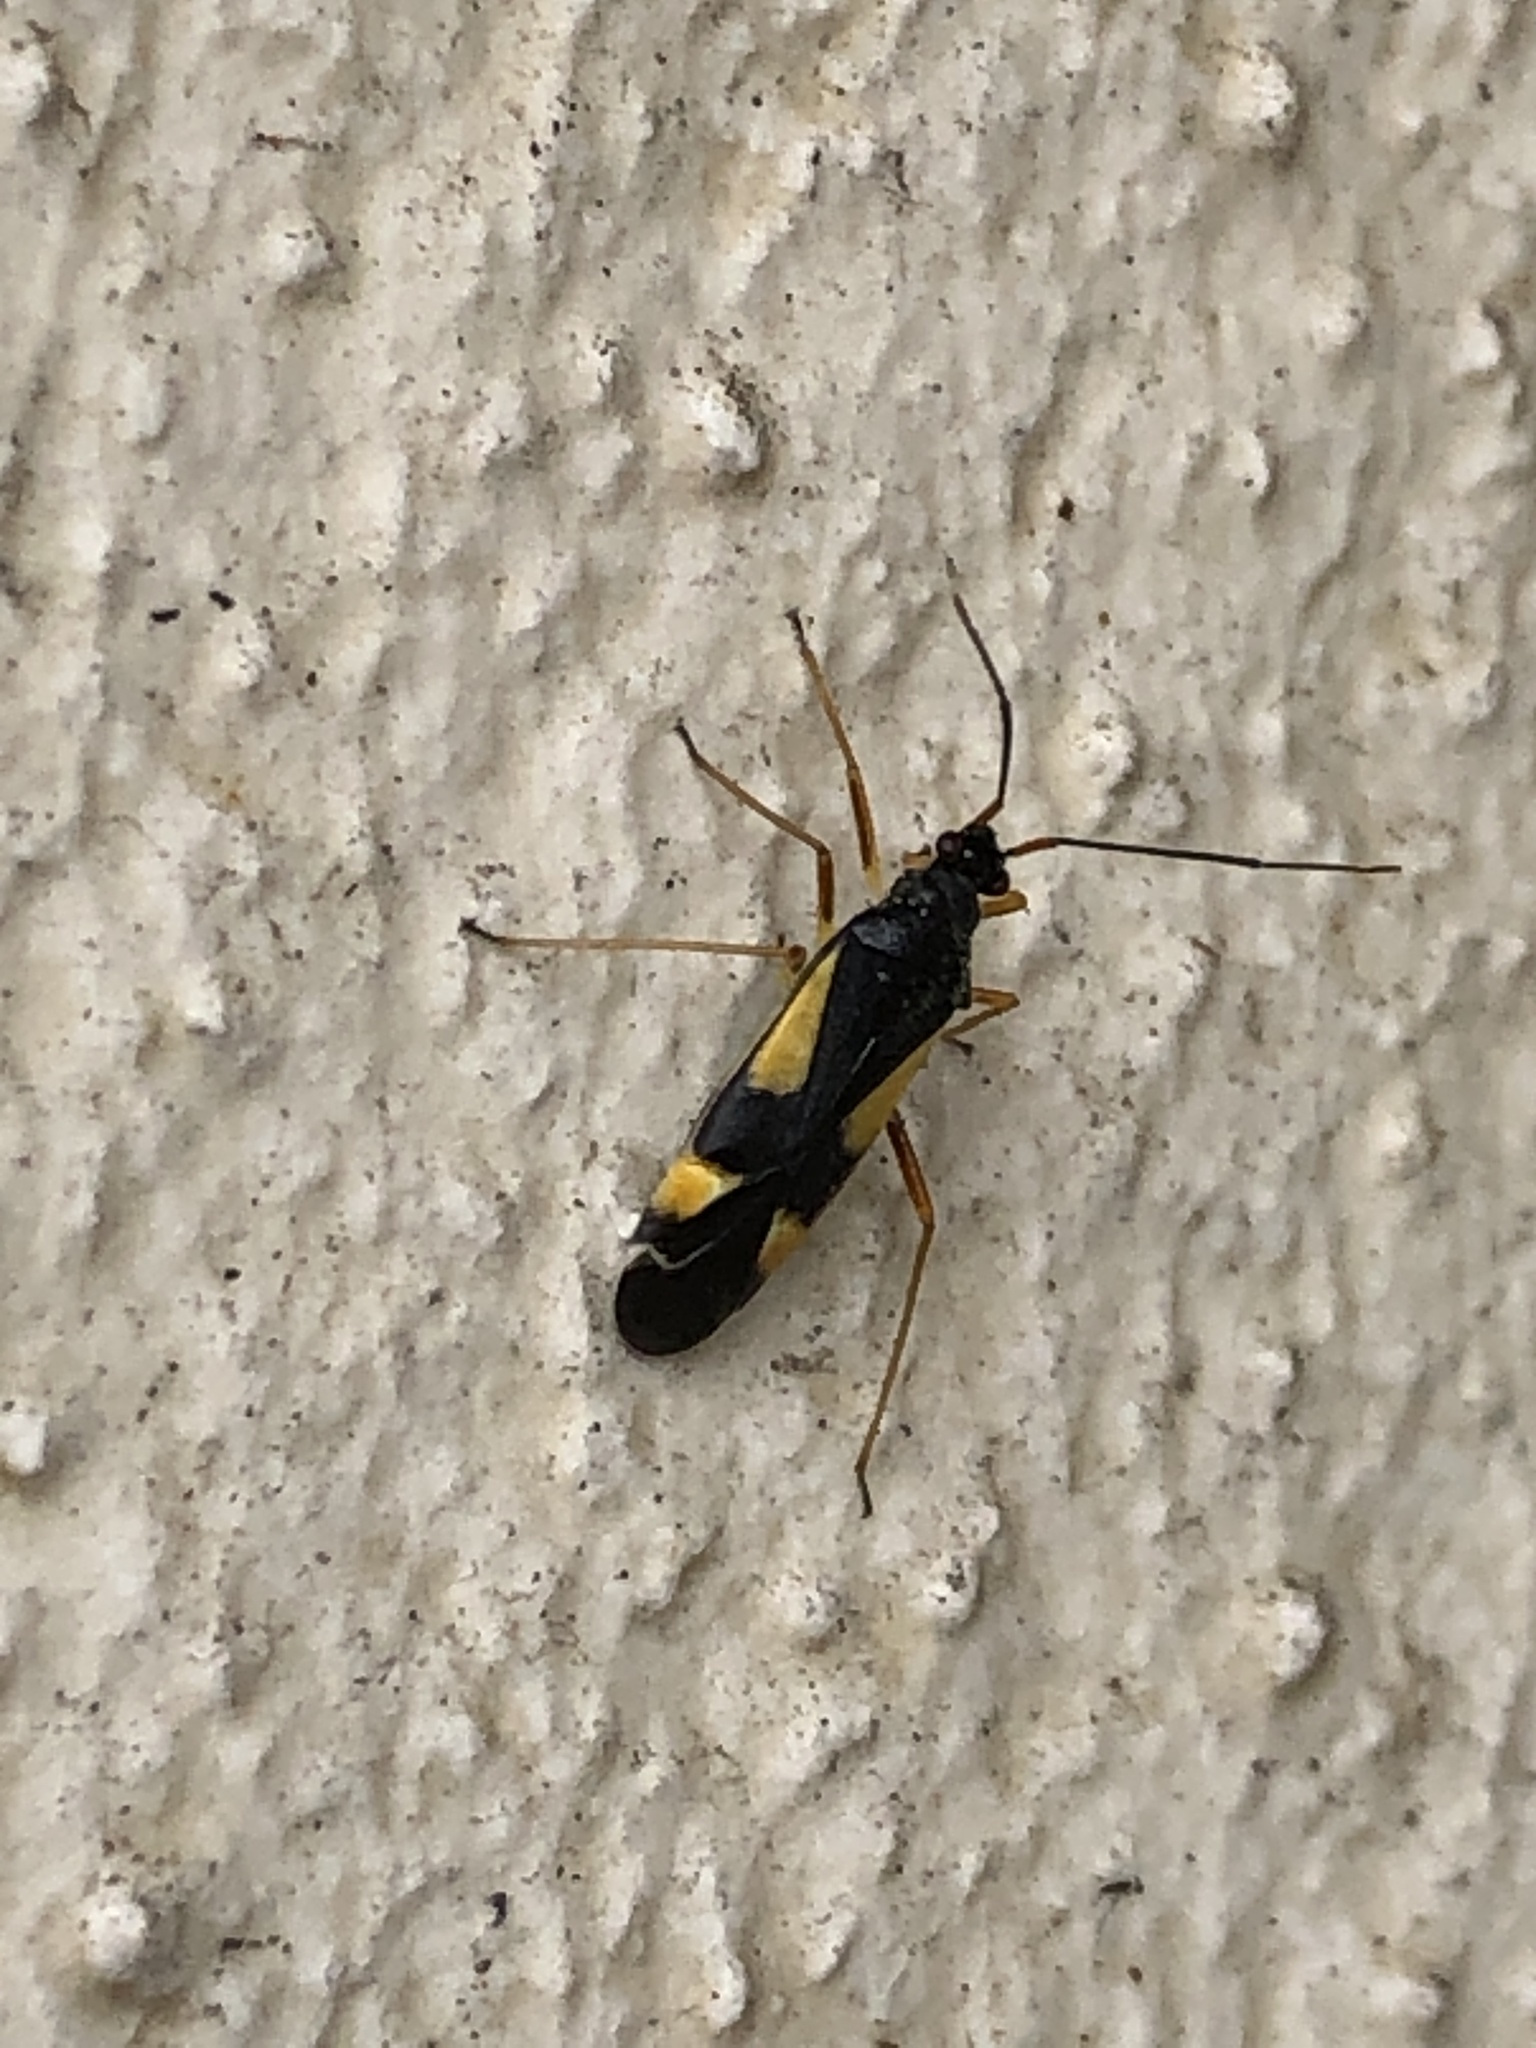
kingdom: Animalia
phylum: Arthropoda
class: Insecta
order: Hemiptera
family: Miridae
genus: Dryophilocoris
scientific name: Dryophilocoris flavoquadrimaculatus
